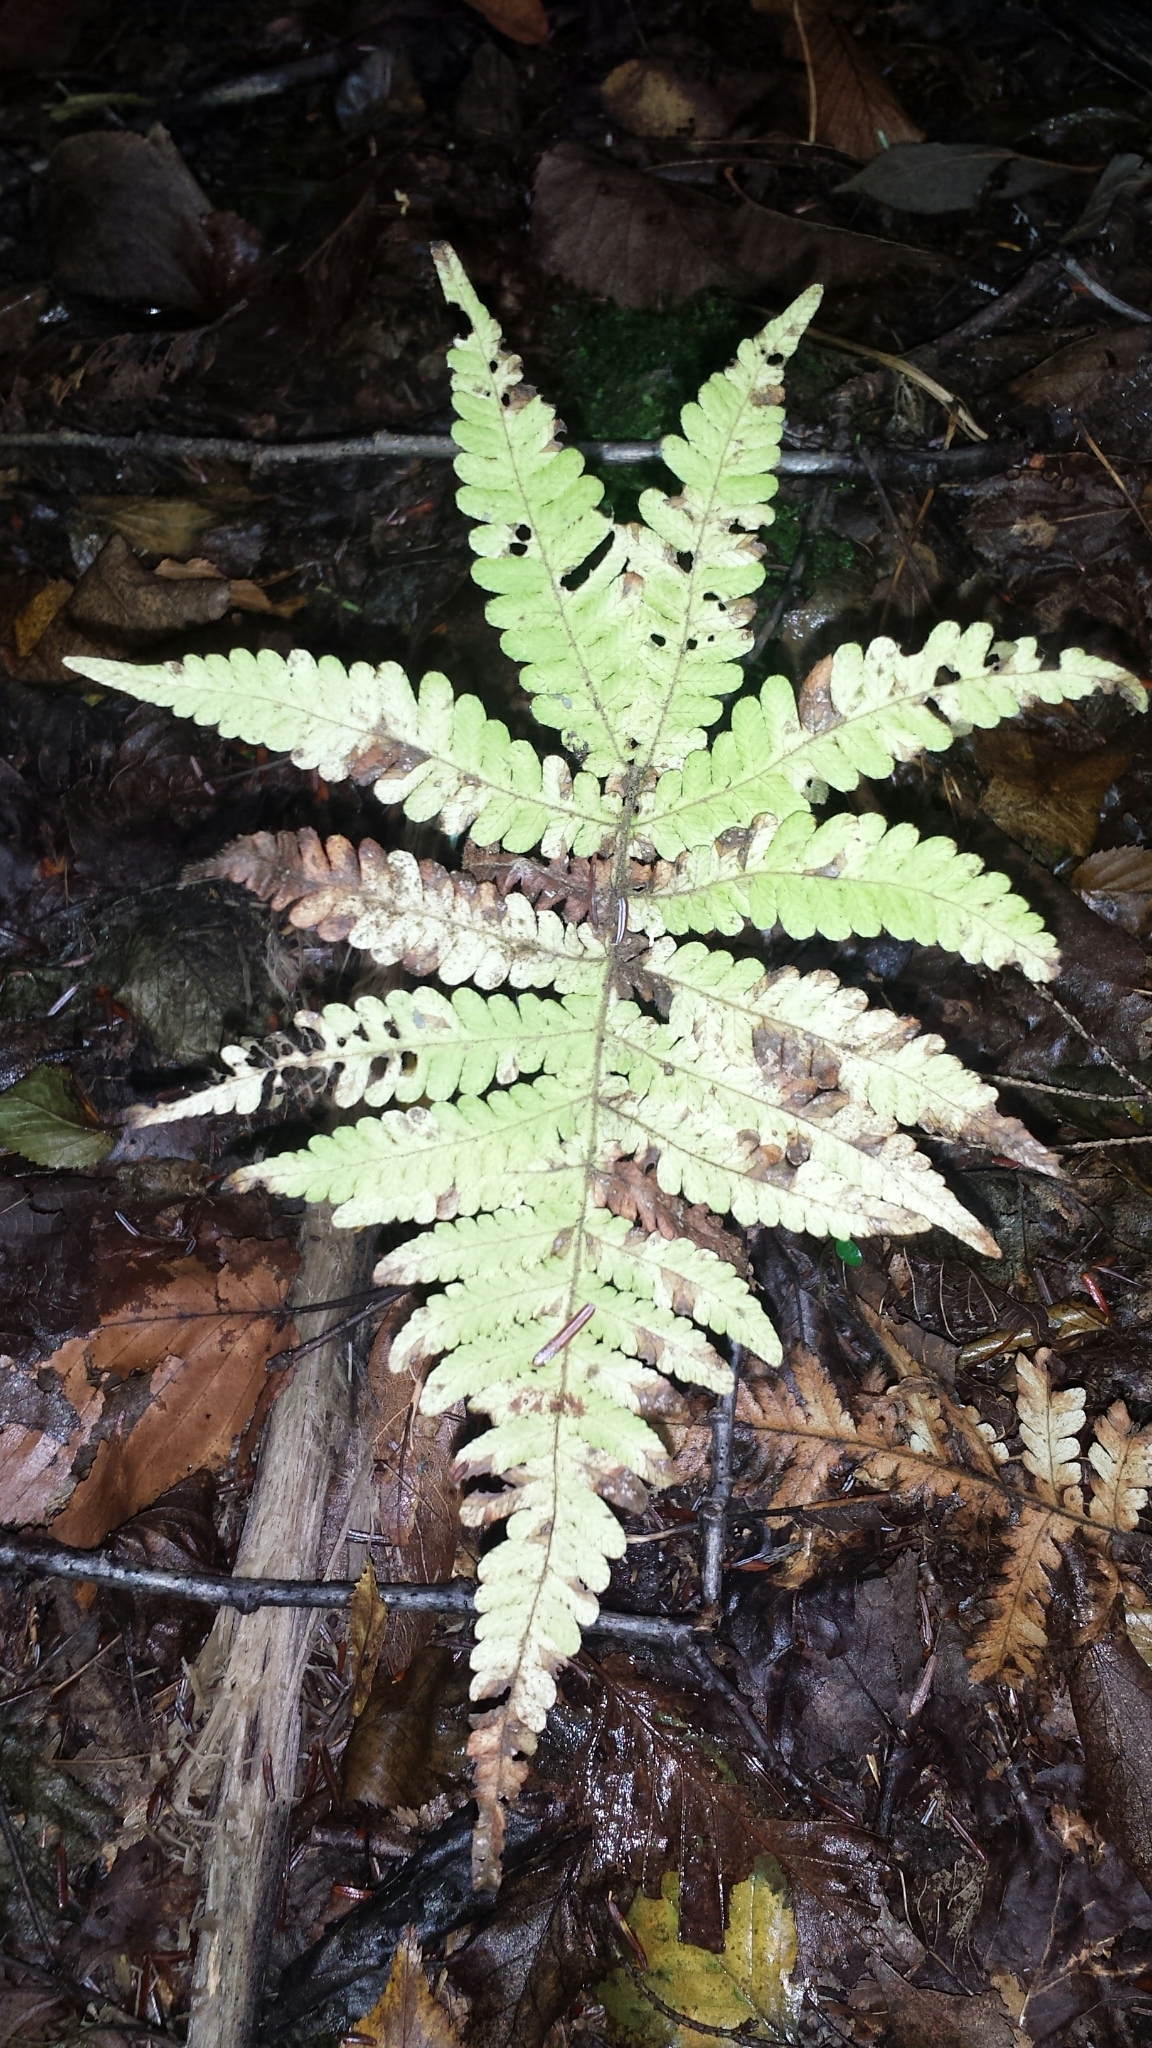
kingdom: Plantae
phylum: Tracheophyta
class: Polypodiopsida
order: Polypodiales
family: Thelypteridaceae
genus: Phegopteris
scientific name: Phegopteris connectilis
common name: Beech fern
